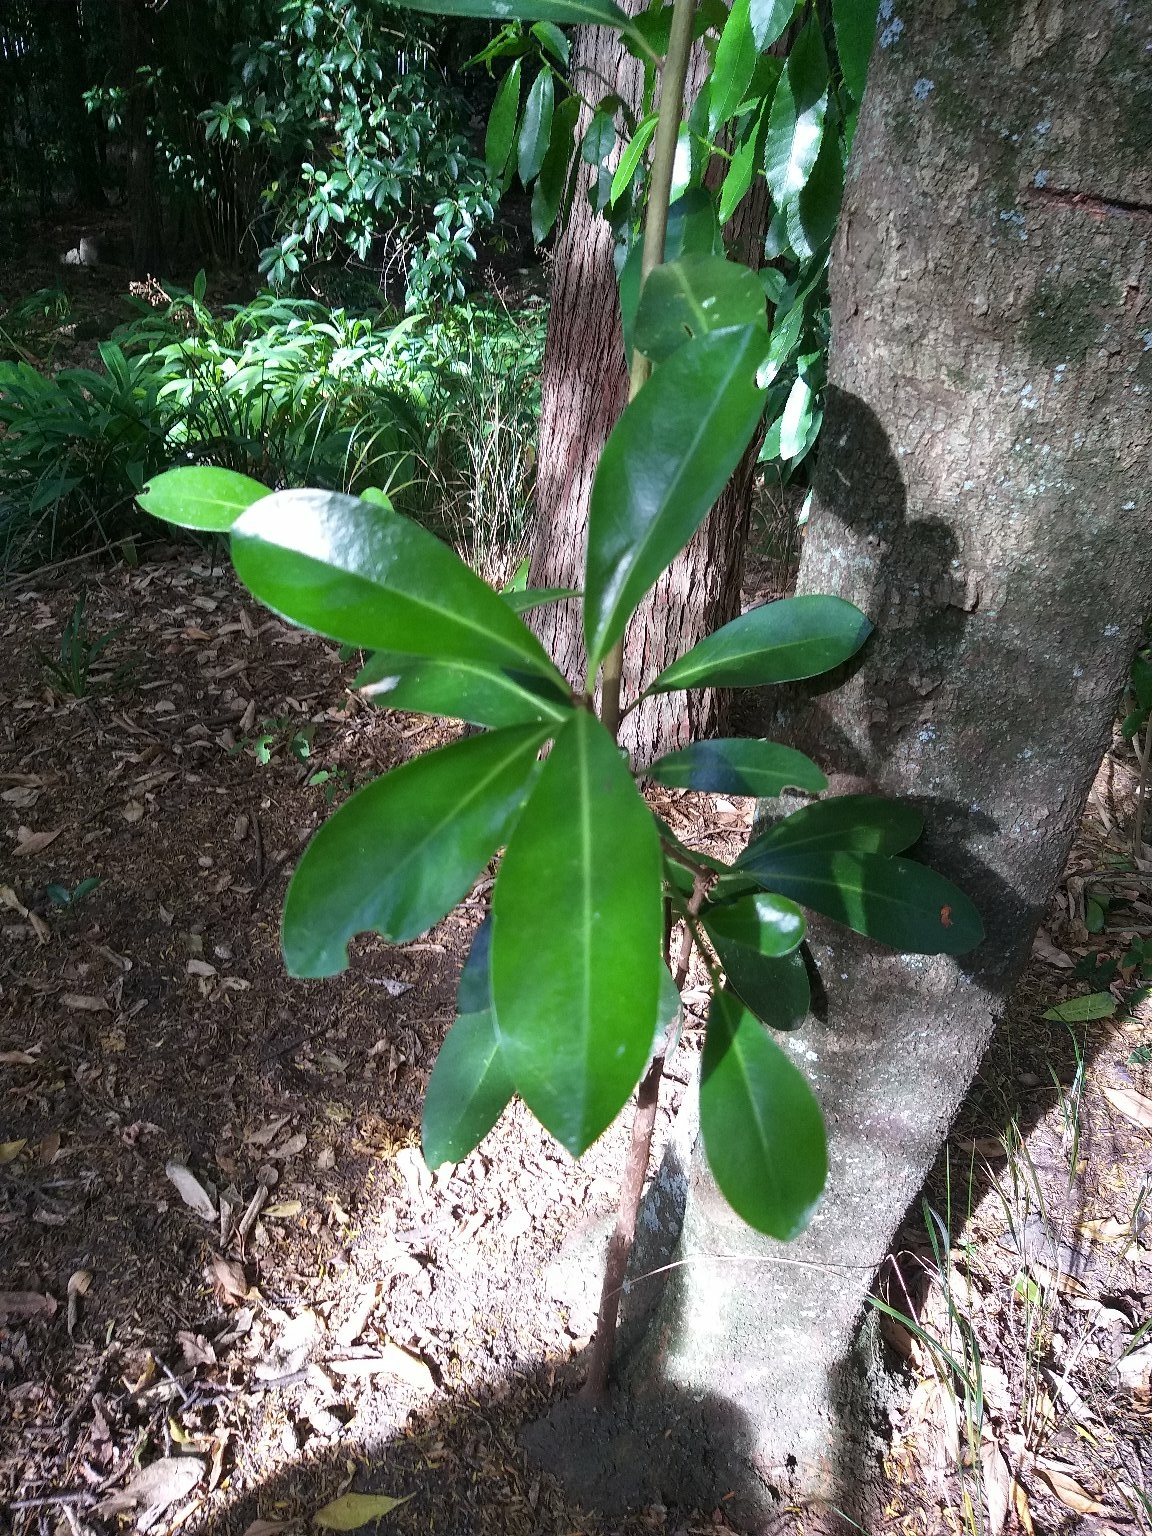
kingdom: Plantae
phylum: Tracheophyta
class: Magnoliopsida
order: Cucurbitales
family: Corynocarpaceae
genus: Corynocarpus
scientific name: Corynocarpus laevigatus
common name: New zealand laurel
